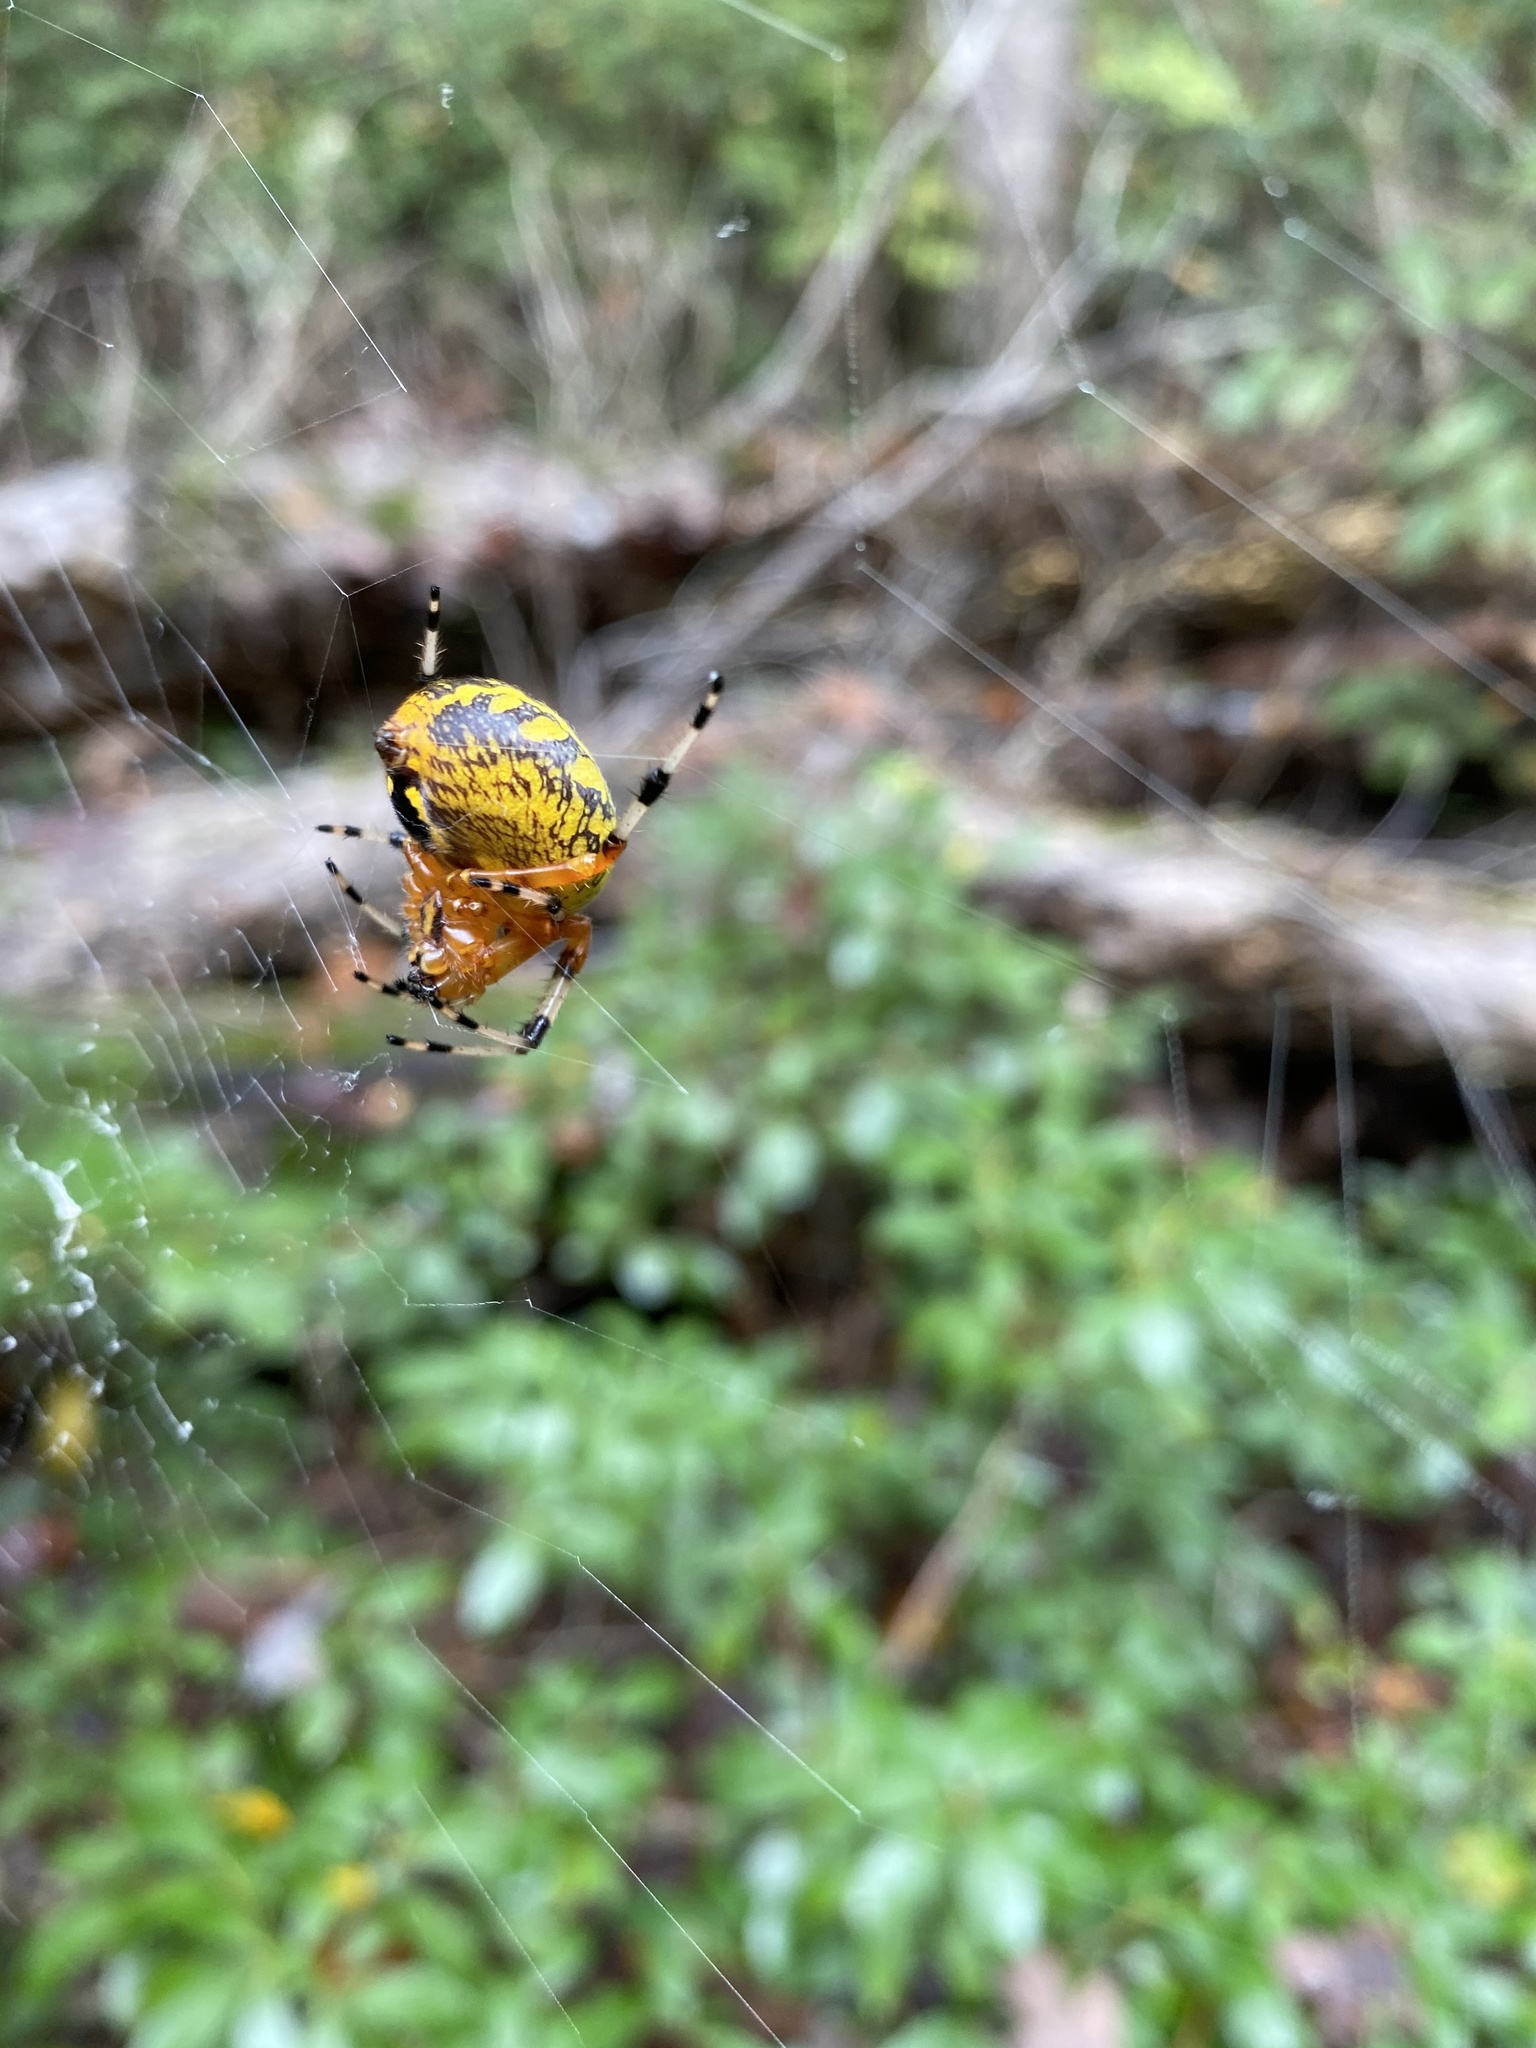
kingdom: Animalia
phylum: Arthropoda
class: Arachnida
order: Araneae
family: Araneidae
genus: Araneus
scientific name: Araneus marmoreus
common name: Marbled orbweaver
